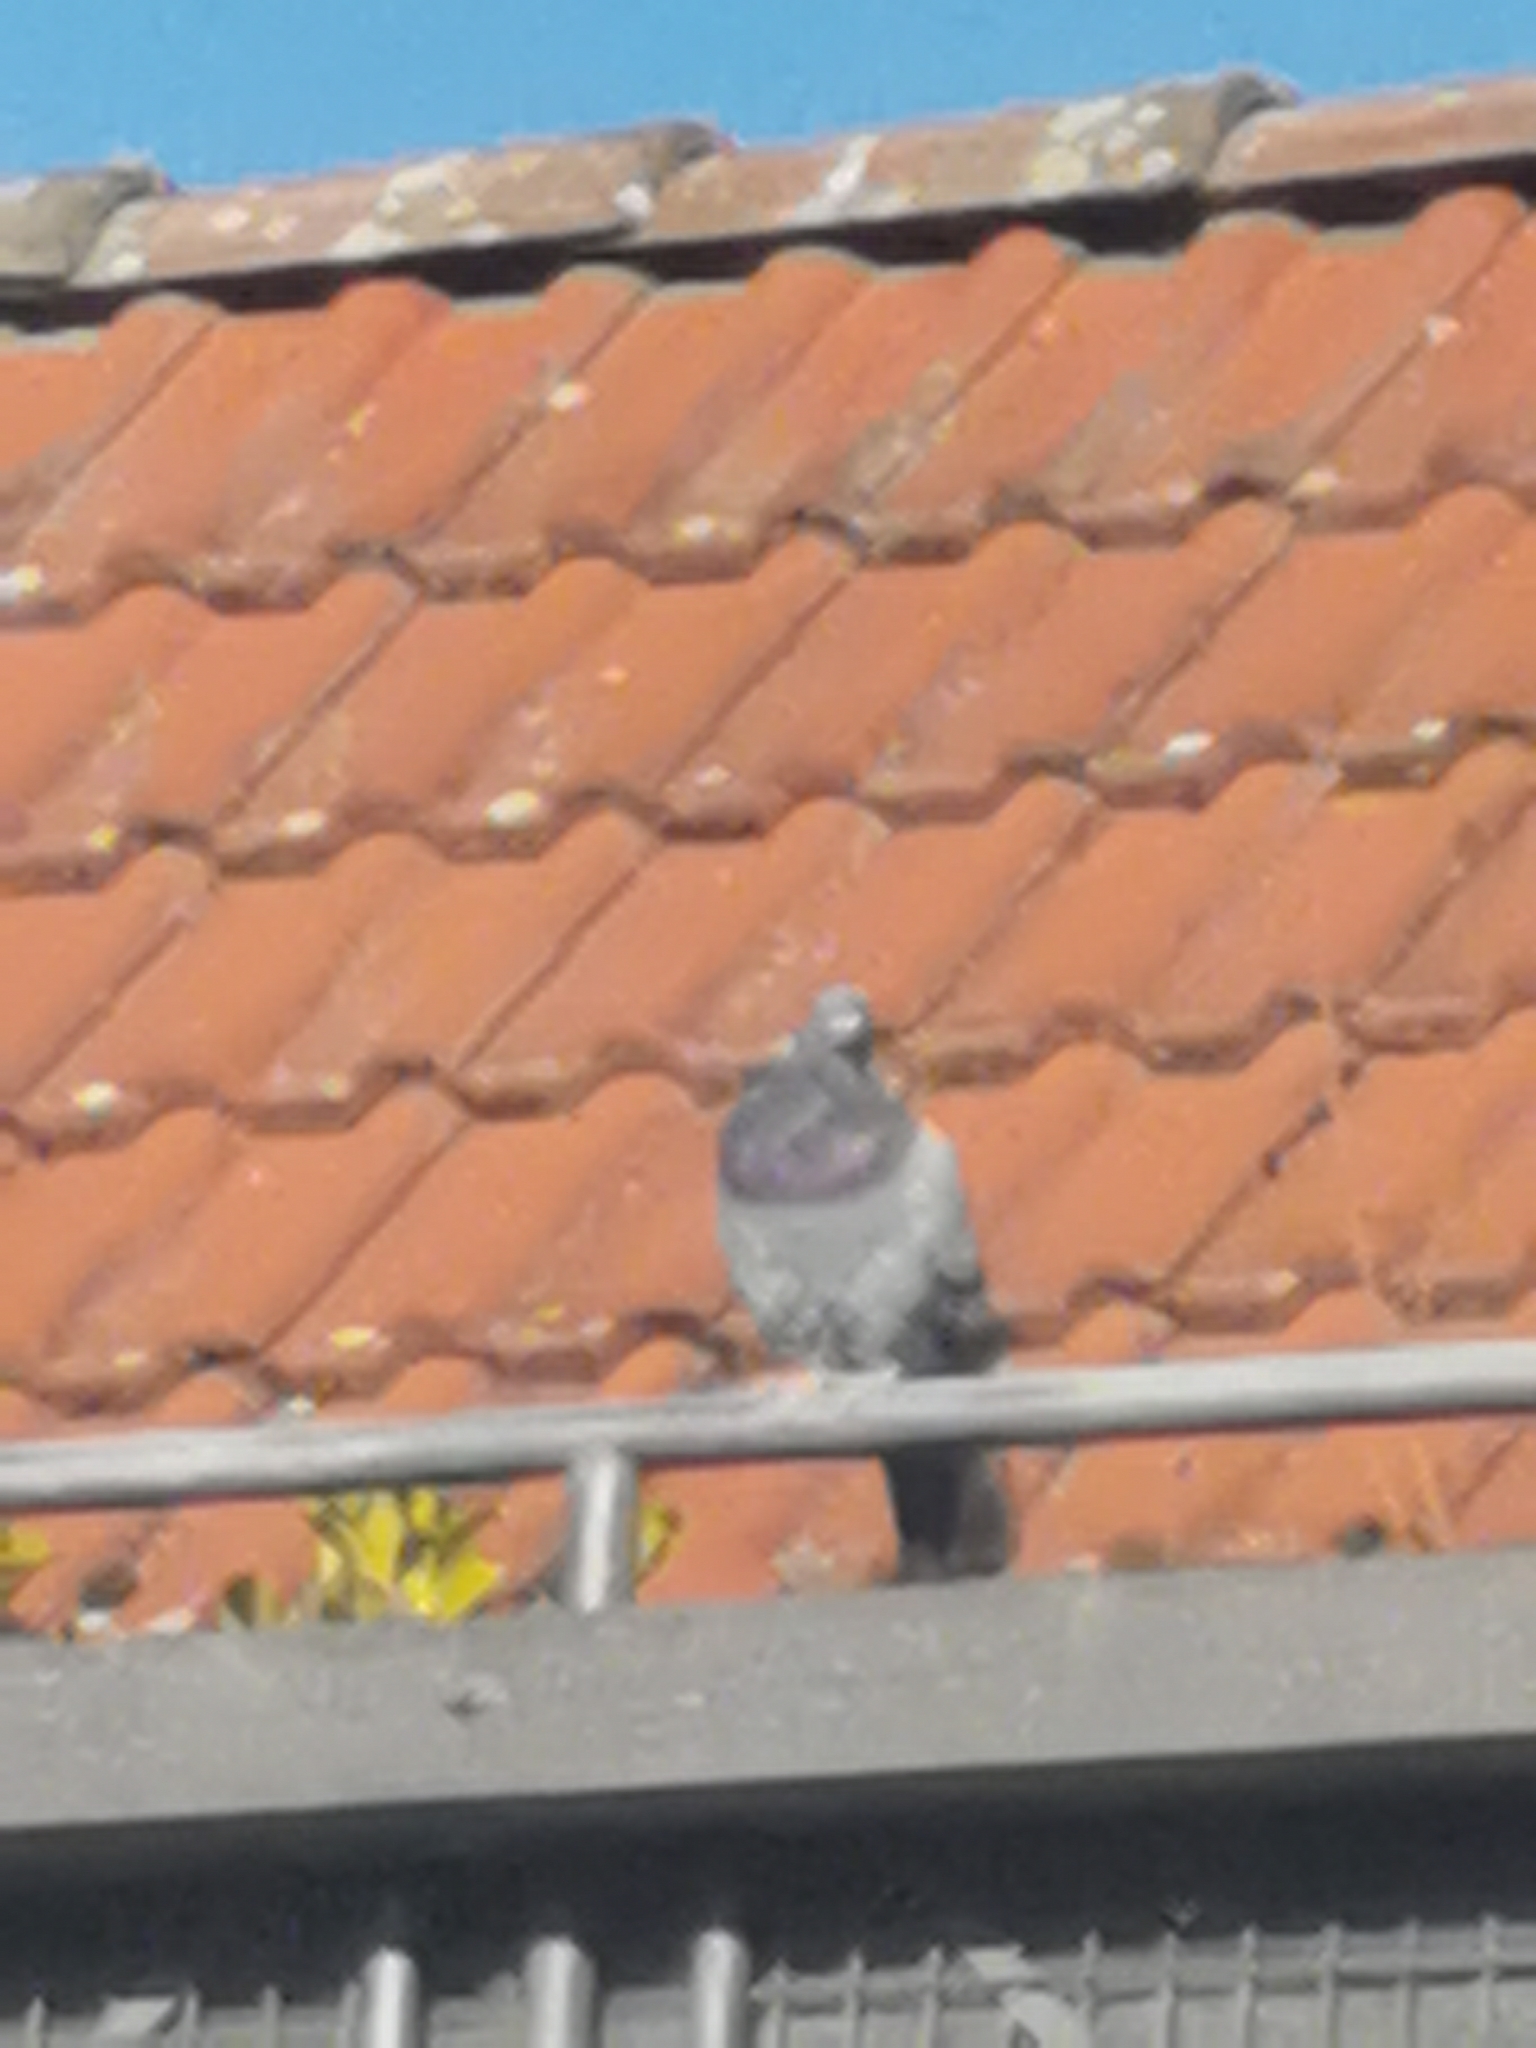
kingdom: Animalia
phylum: Chordata
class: Aves
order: Columbiformes
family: Columbidae
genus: Columba
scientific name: Columba livia
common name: Rock pigeon
